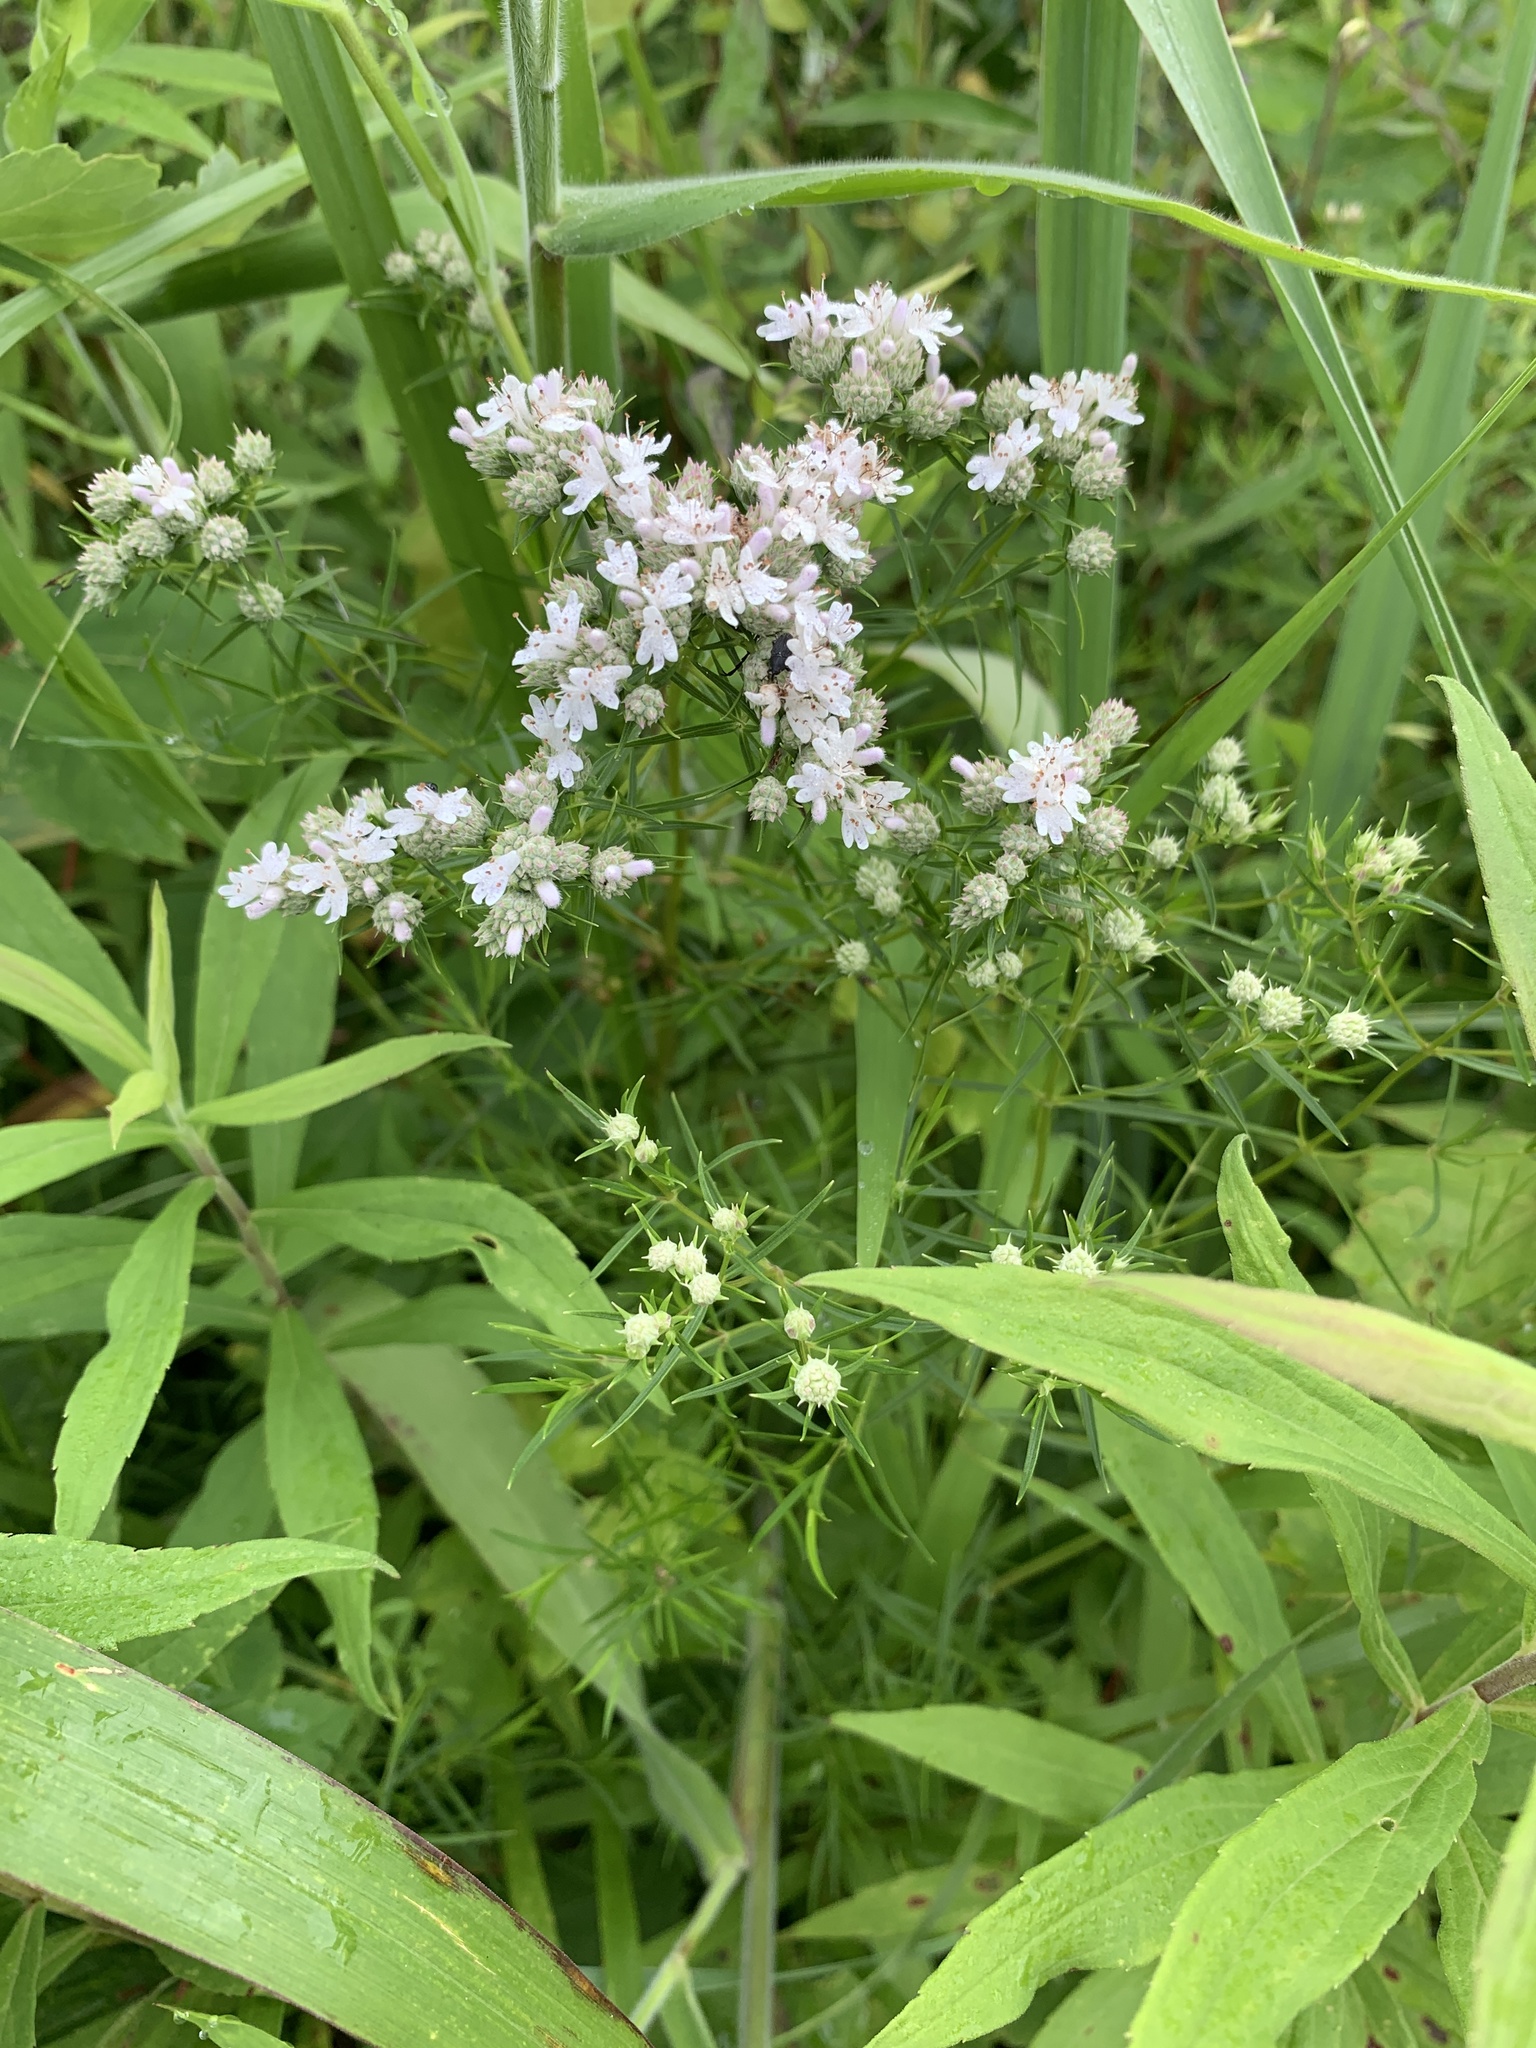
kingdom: Plantae
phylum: Tracheophyta
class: Magnoliopsida
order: Lamiales
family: Lamiaceae
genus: Pycnanthemum
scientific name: Pycnanthemum tenuifolium
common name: Narrow-leaf mountain-mint
